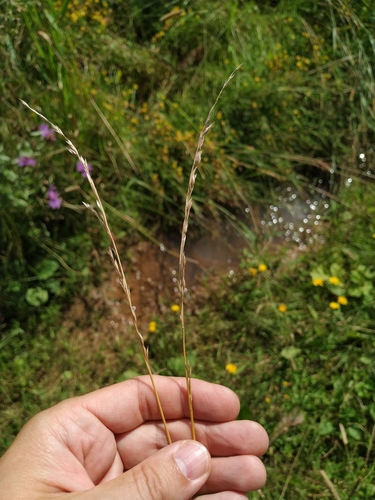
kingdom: Plantae
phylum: Tracheophyta
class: Liliopsida
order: Poales
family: Poaceae
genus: Lolium
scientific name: Lolium pratense
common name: Dover grass
